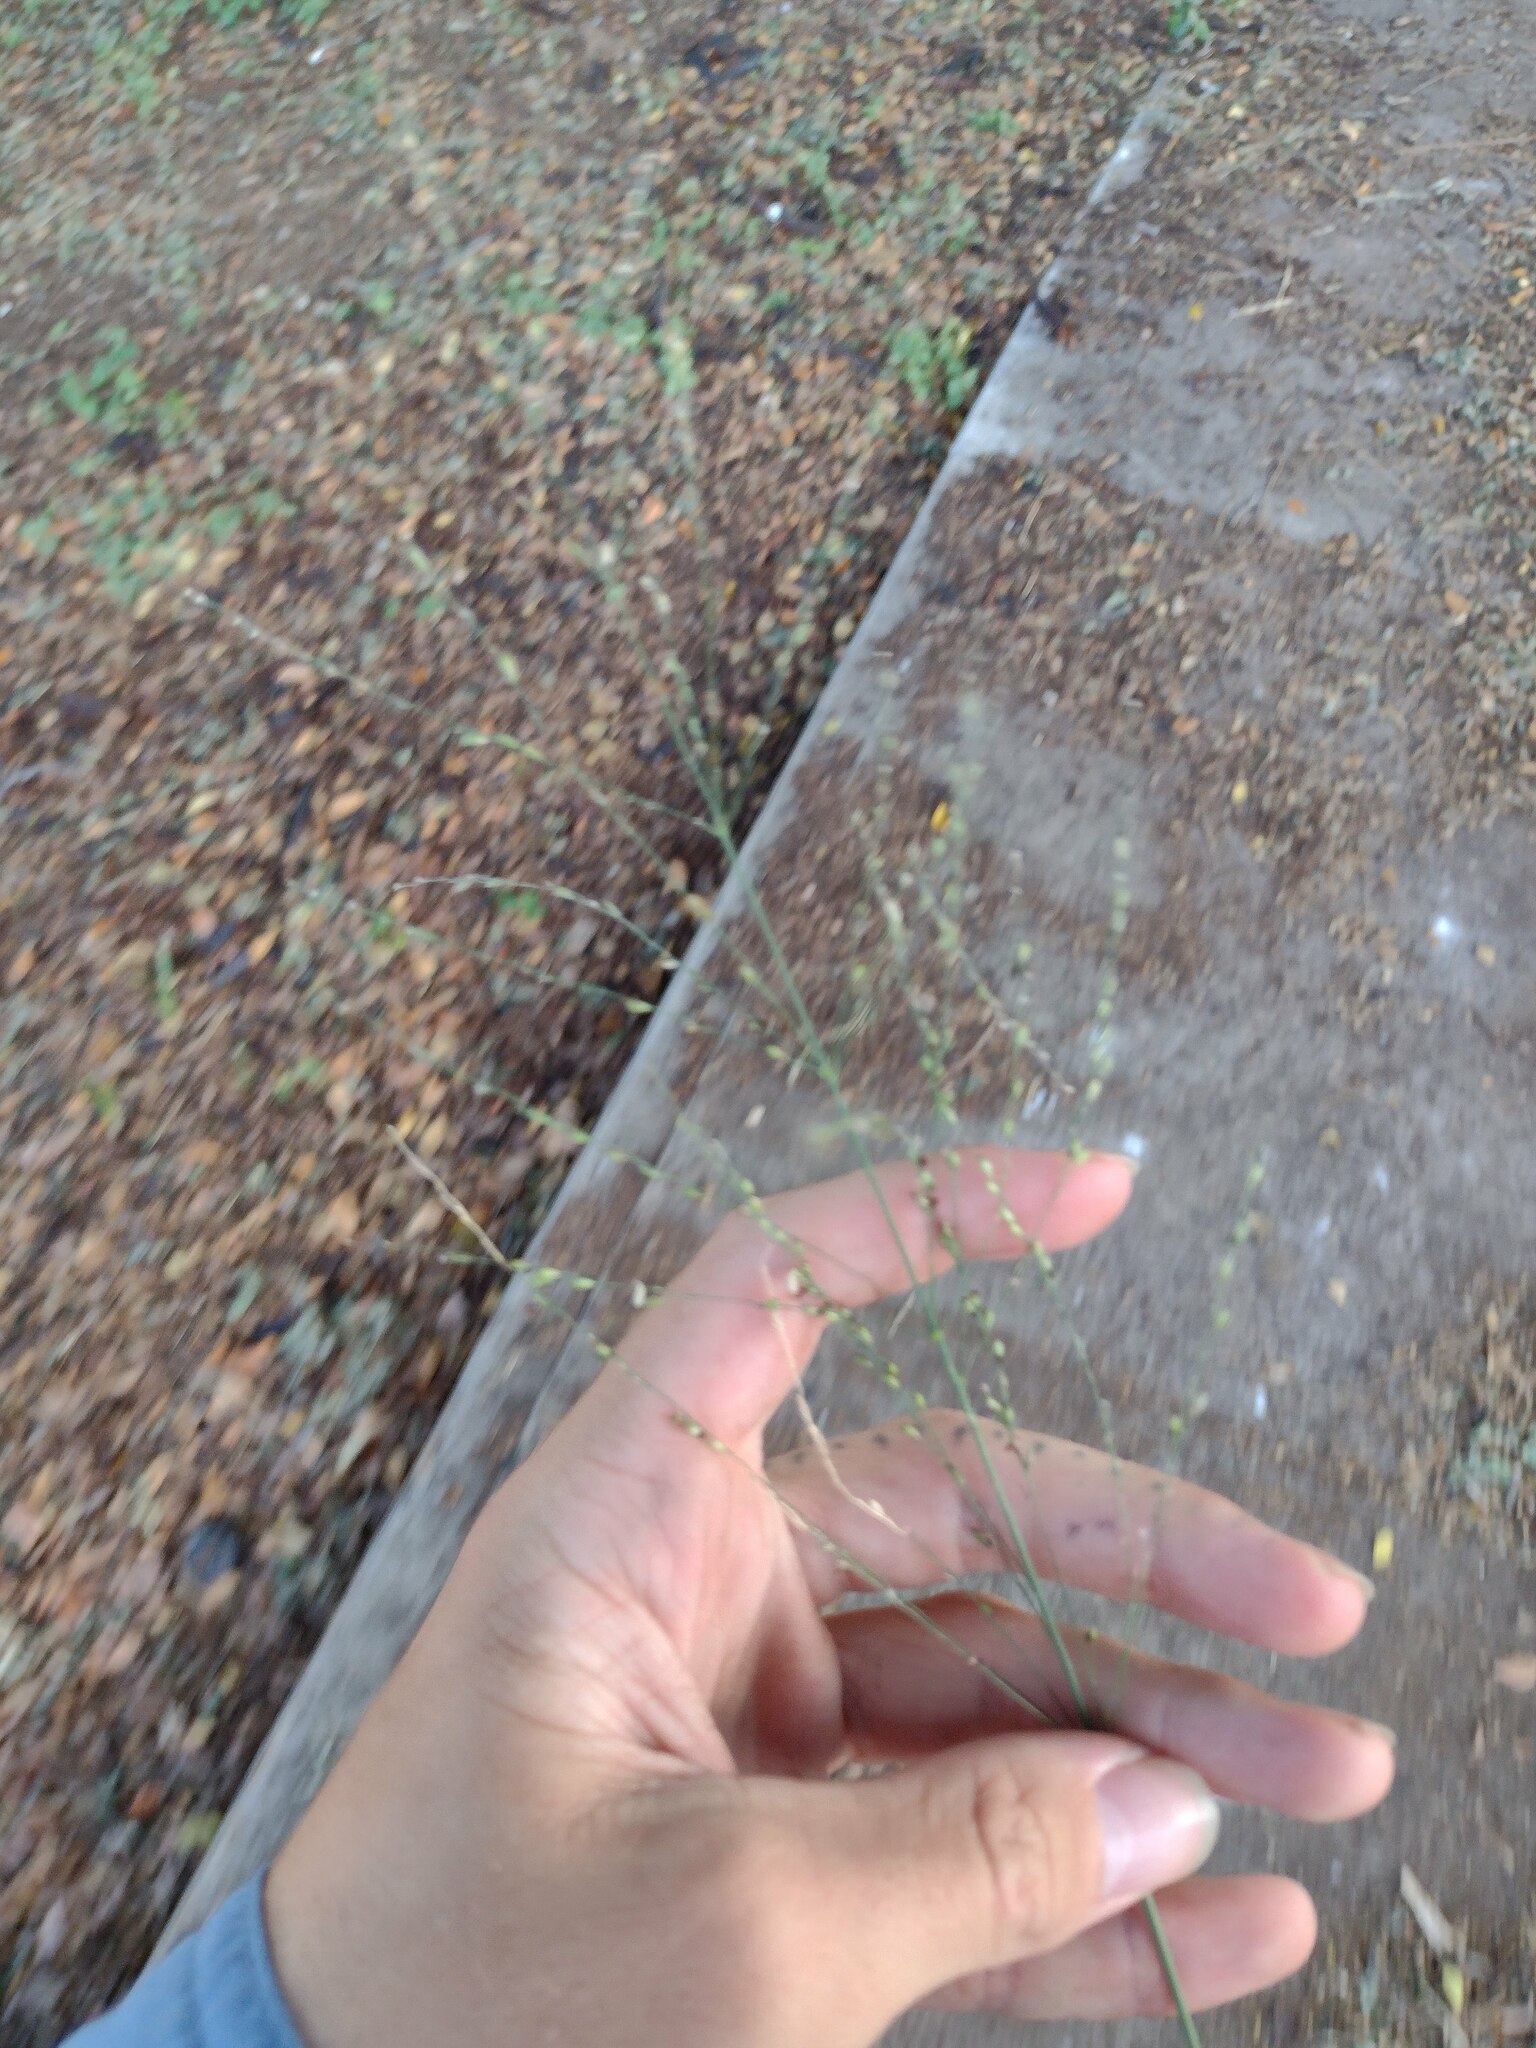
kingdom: Plantae
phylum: Tracheophyta
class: Liliopsida
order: Poales
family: Poaceae
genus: Megathyrsus
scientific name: Megathyrsus maximus
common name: Guineagrass
